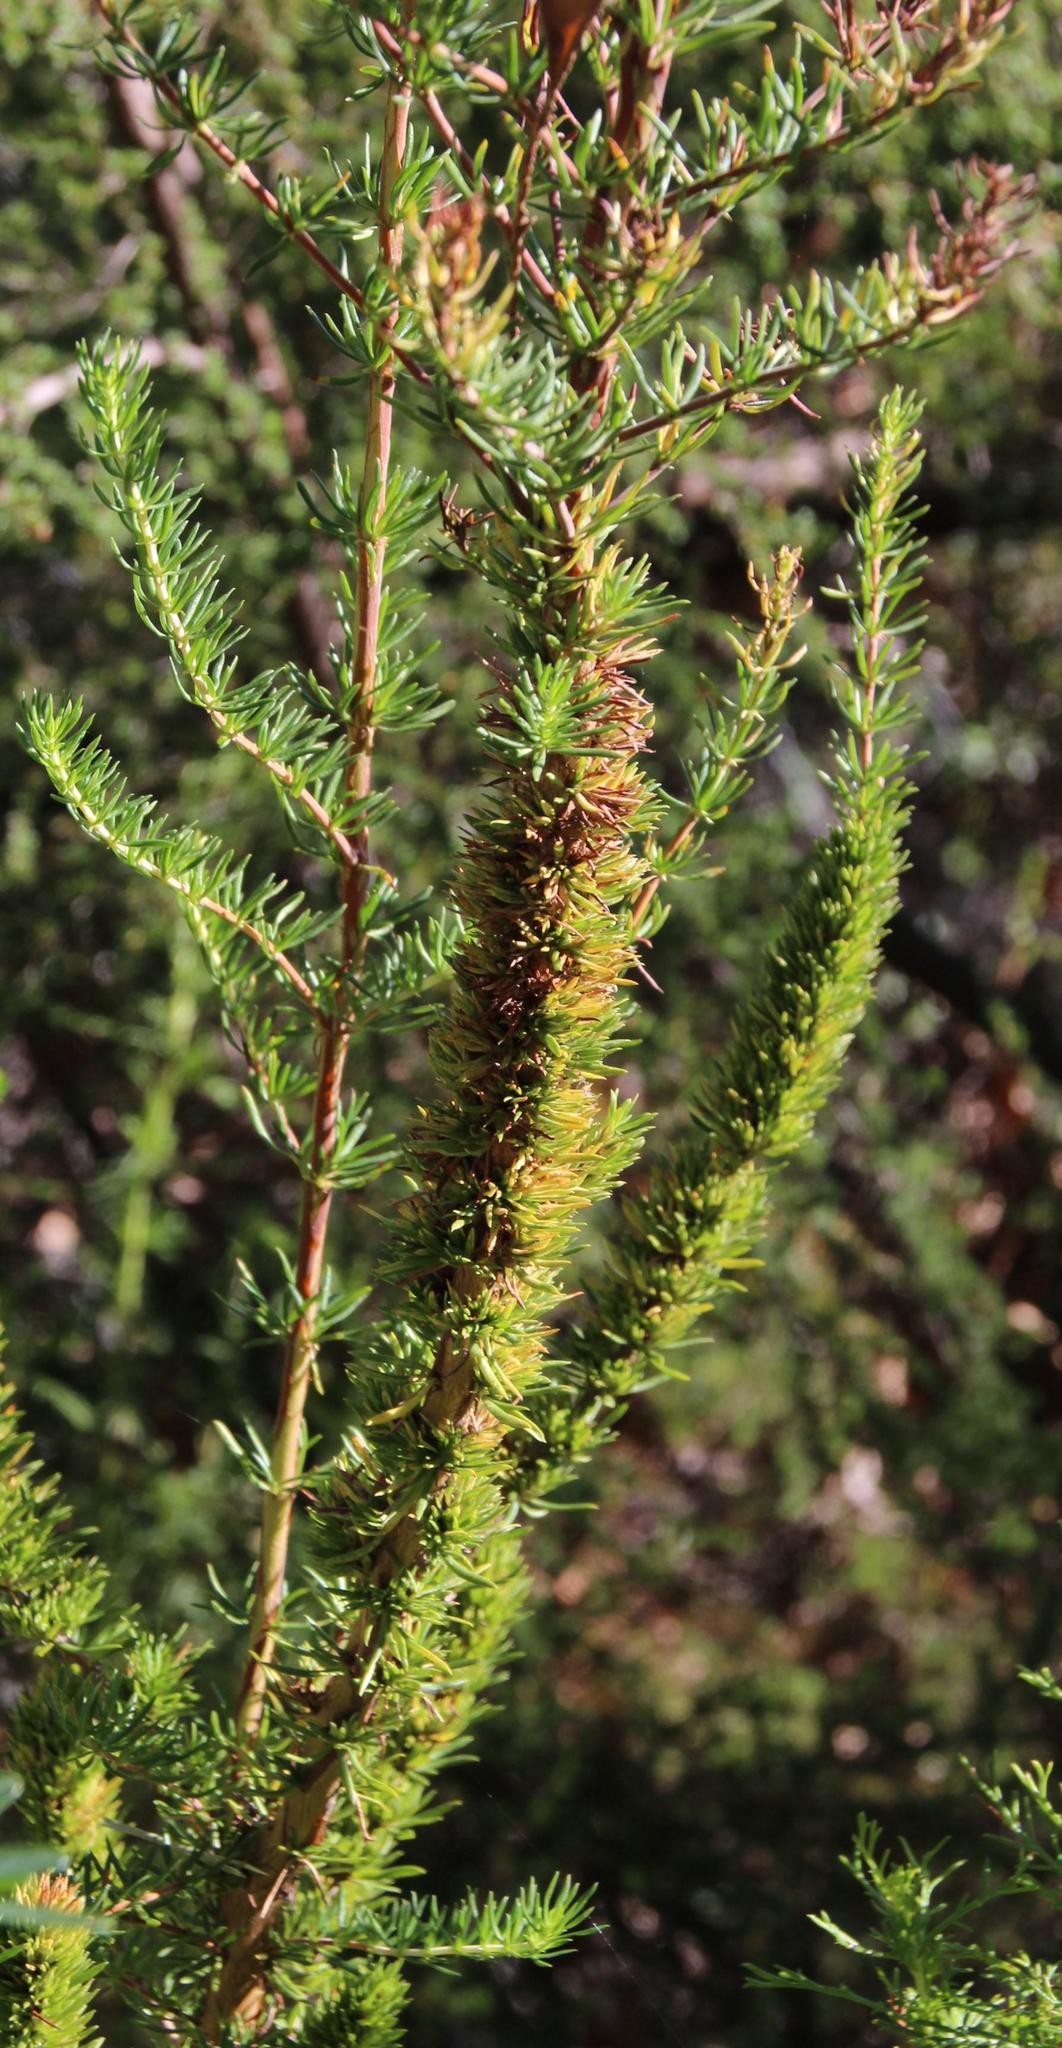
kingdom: Plantae
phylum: Tracheophyta
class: Magnoliopsida
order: Gentianales
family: Rubiaceae
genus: Anthospermum
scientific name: Anthospermum aethiopicum
